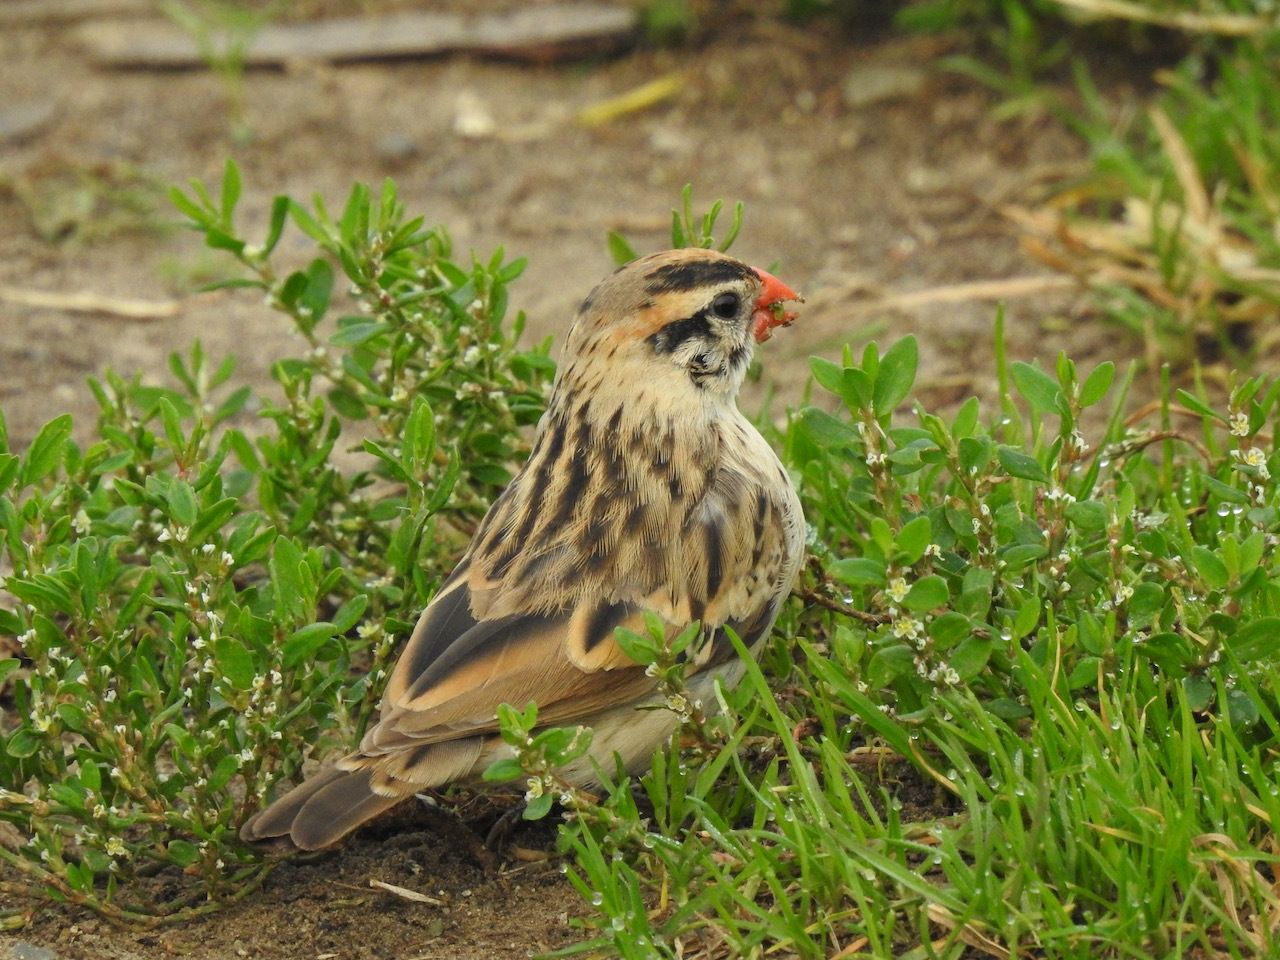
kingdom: Animalia
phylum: Chordata
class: Aves
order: Passeriformes
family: Viduidae
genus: Vidua
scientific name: Vidua macroura
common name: Pin-tailed whydah
